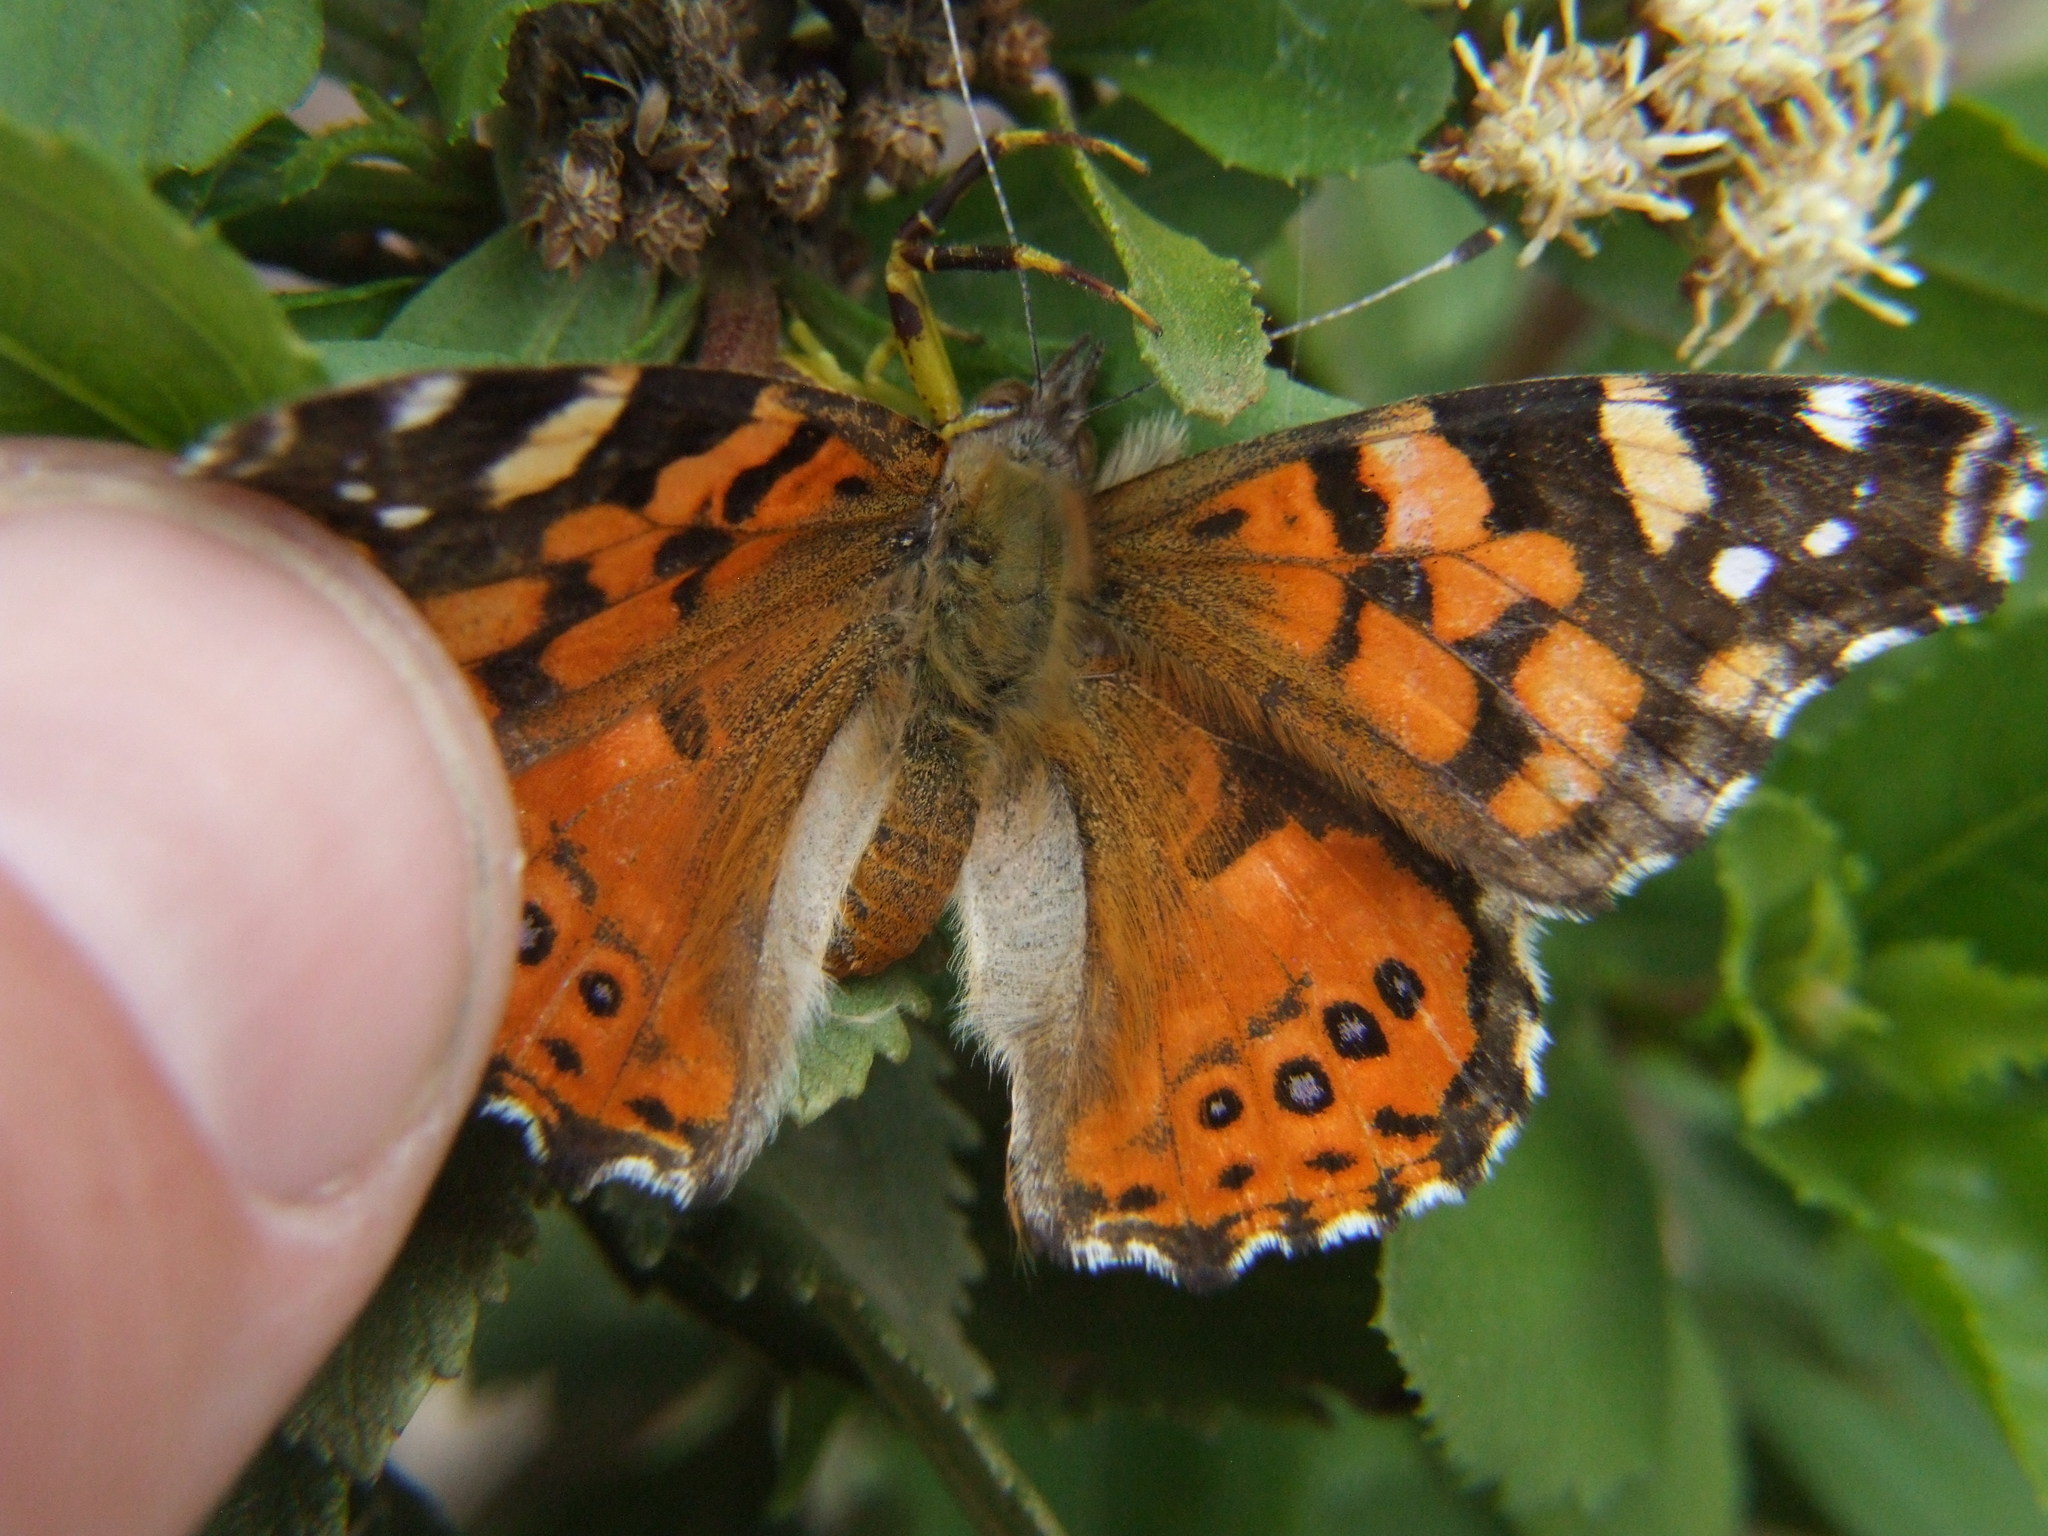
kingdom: Animalia
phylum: Arthropoda
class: Insecta
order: Lepidoptera
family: Nymphalidae
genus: Vanessa
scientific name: Vanessa carye
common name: Subtropical lady
